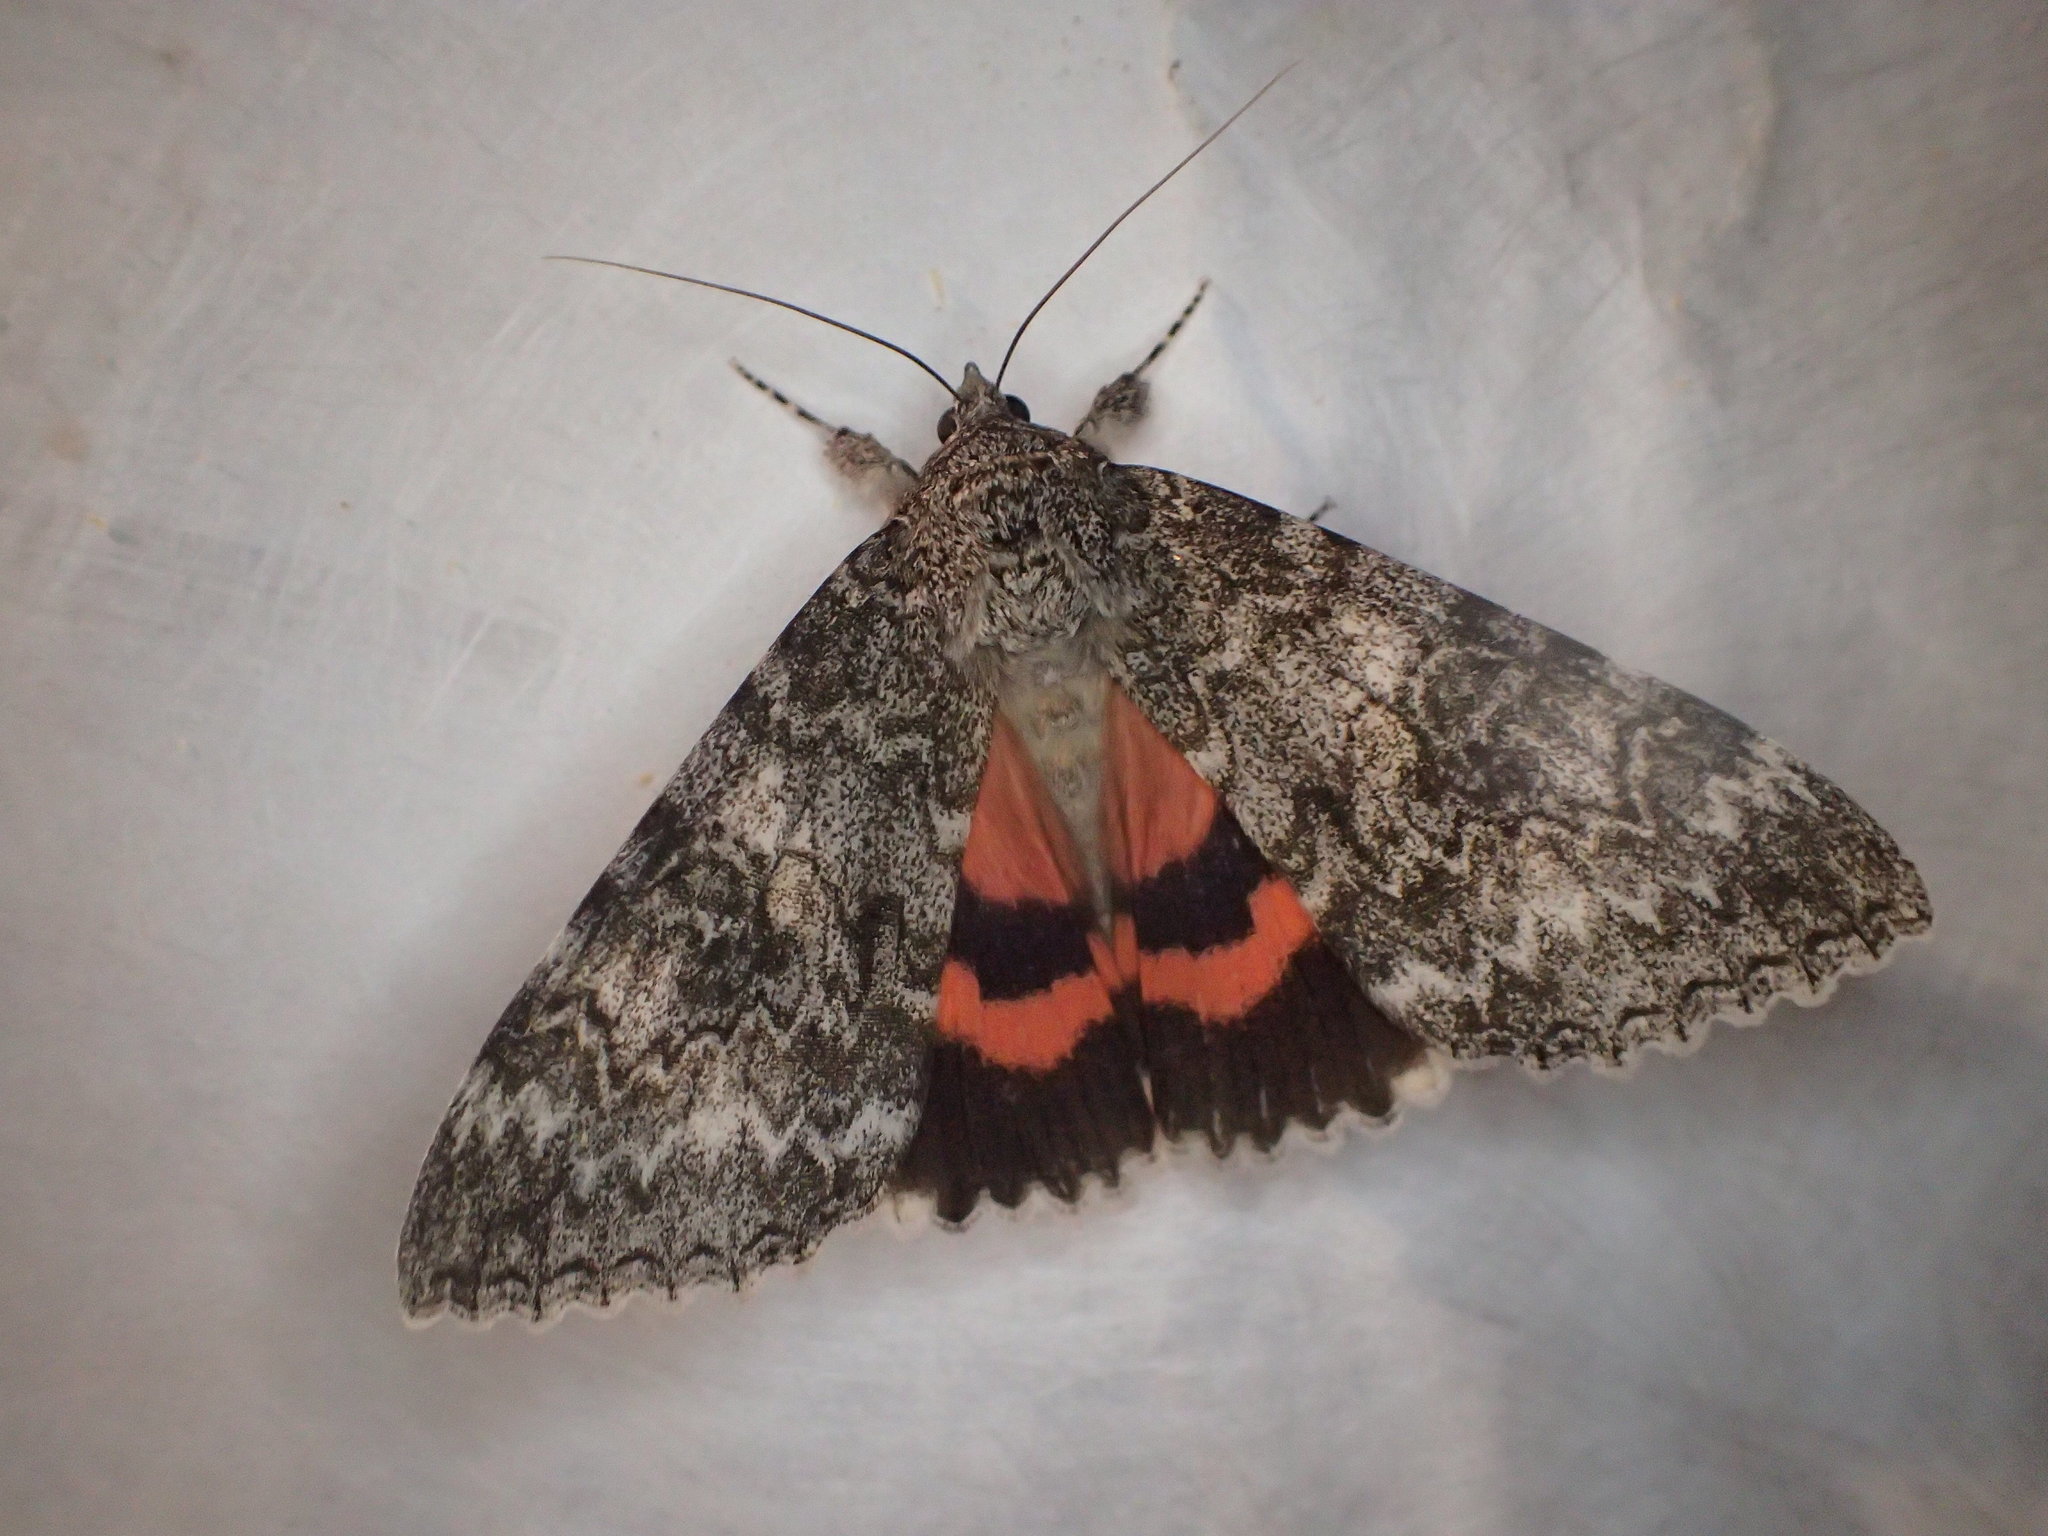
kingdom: Animalia
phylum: Arthropoda
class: Insecta
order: Lepidoptera
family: Erebidae
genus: Catocala
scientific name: Catocala unijuga
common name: Once-married underwing
